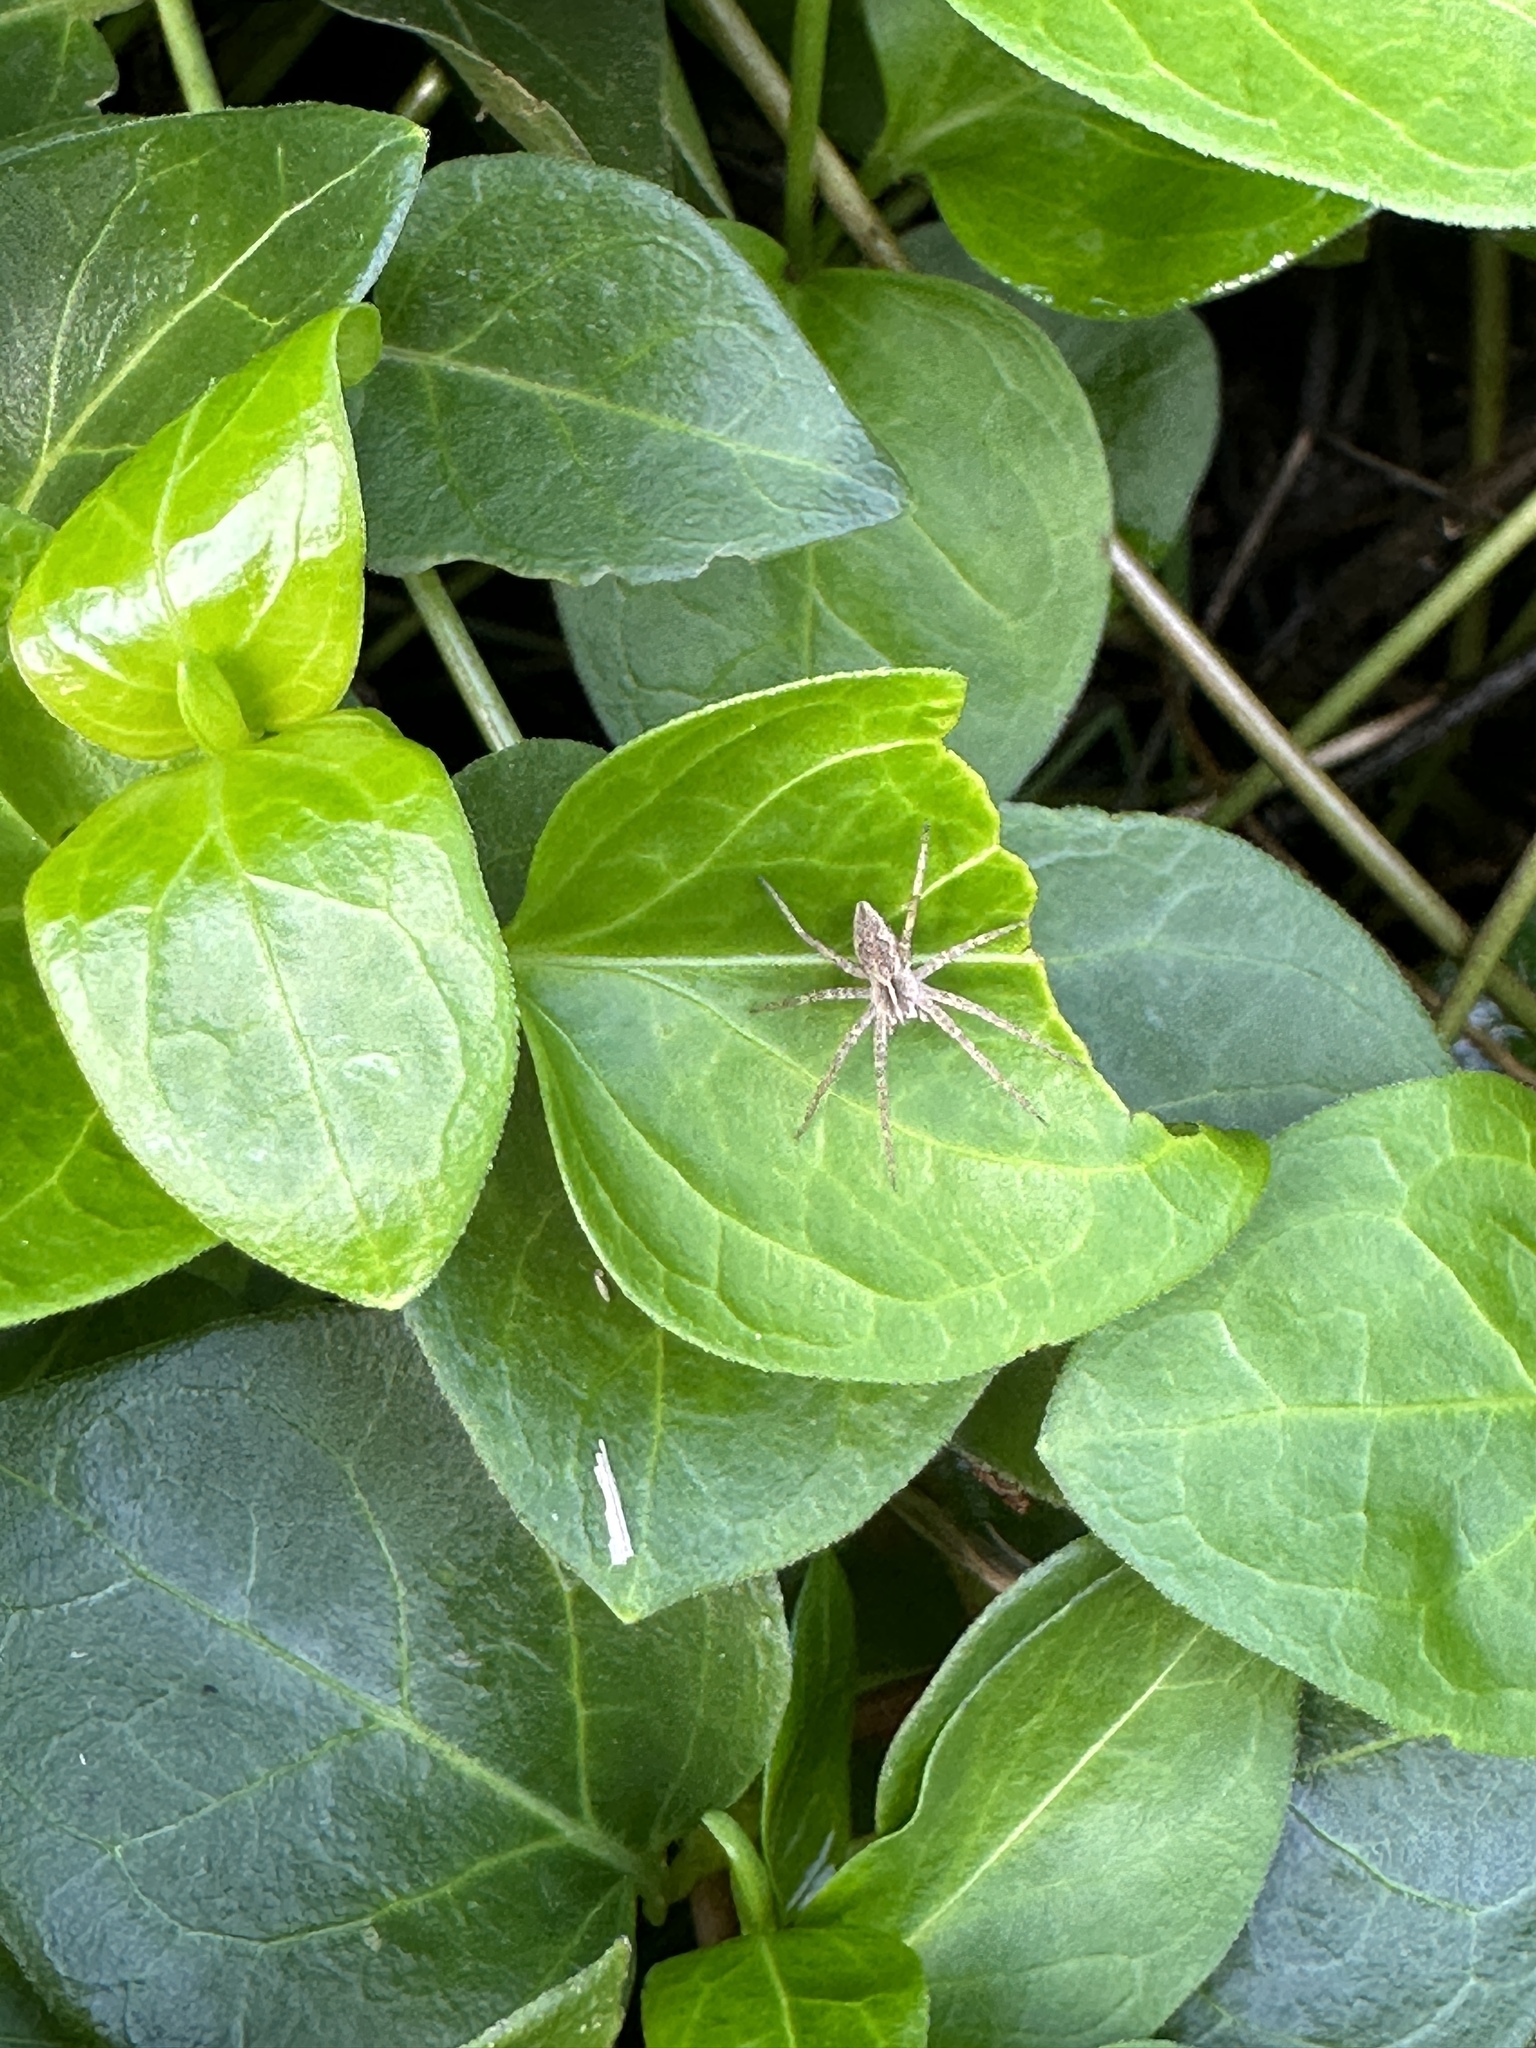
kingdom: Animalia
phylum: Arthropoda
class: Arachnida
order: Araneae
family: Pisauridae
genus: Pisaura
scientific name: Pisaura mirabilis
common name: Tent spider
